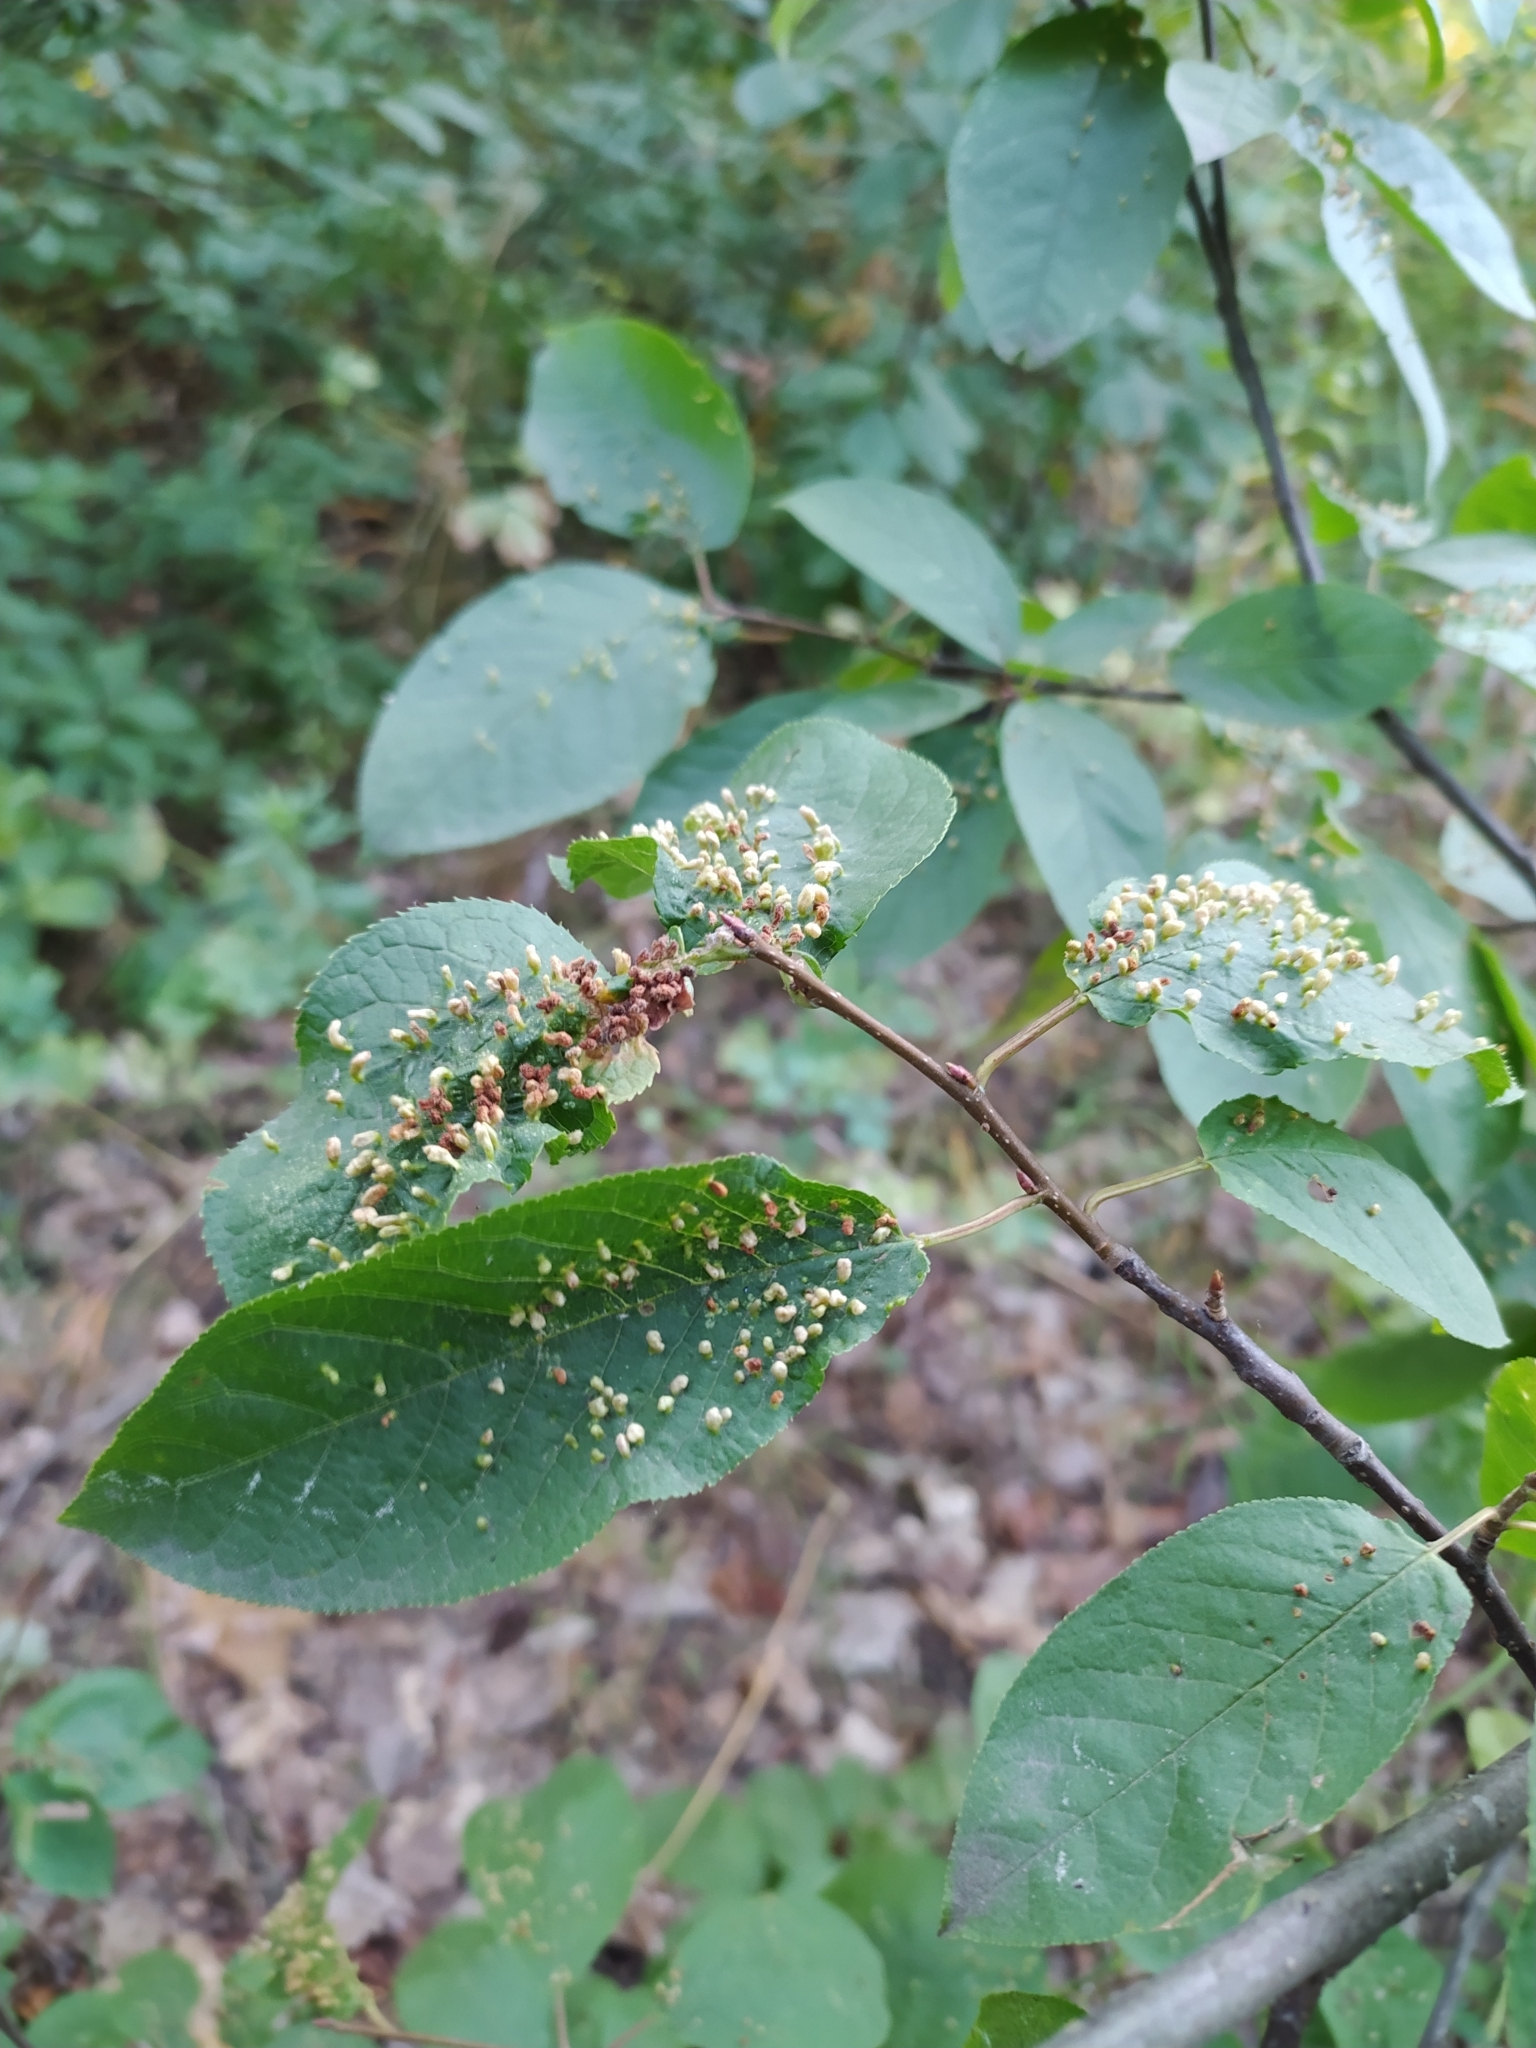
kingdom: Animalia
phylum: Arthropoda
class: Arachnida
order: Trombidiformes
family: Eriophyidae
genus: Eriophyes
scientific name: Eriophyes emarginatae
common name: Plum leaf gall mite
